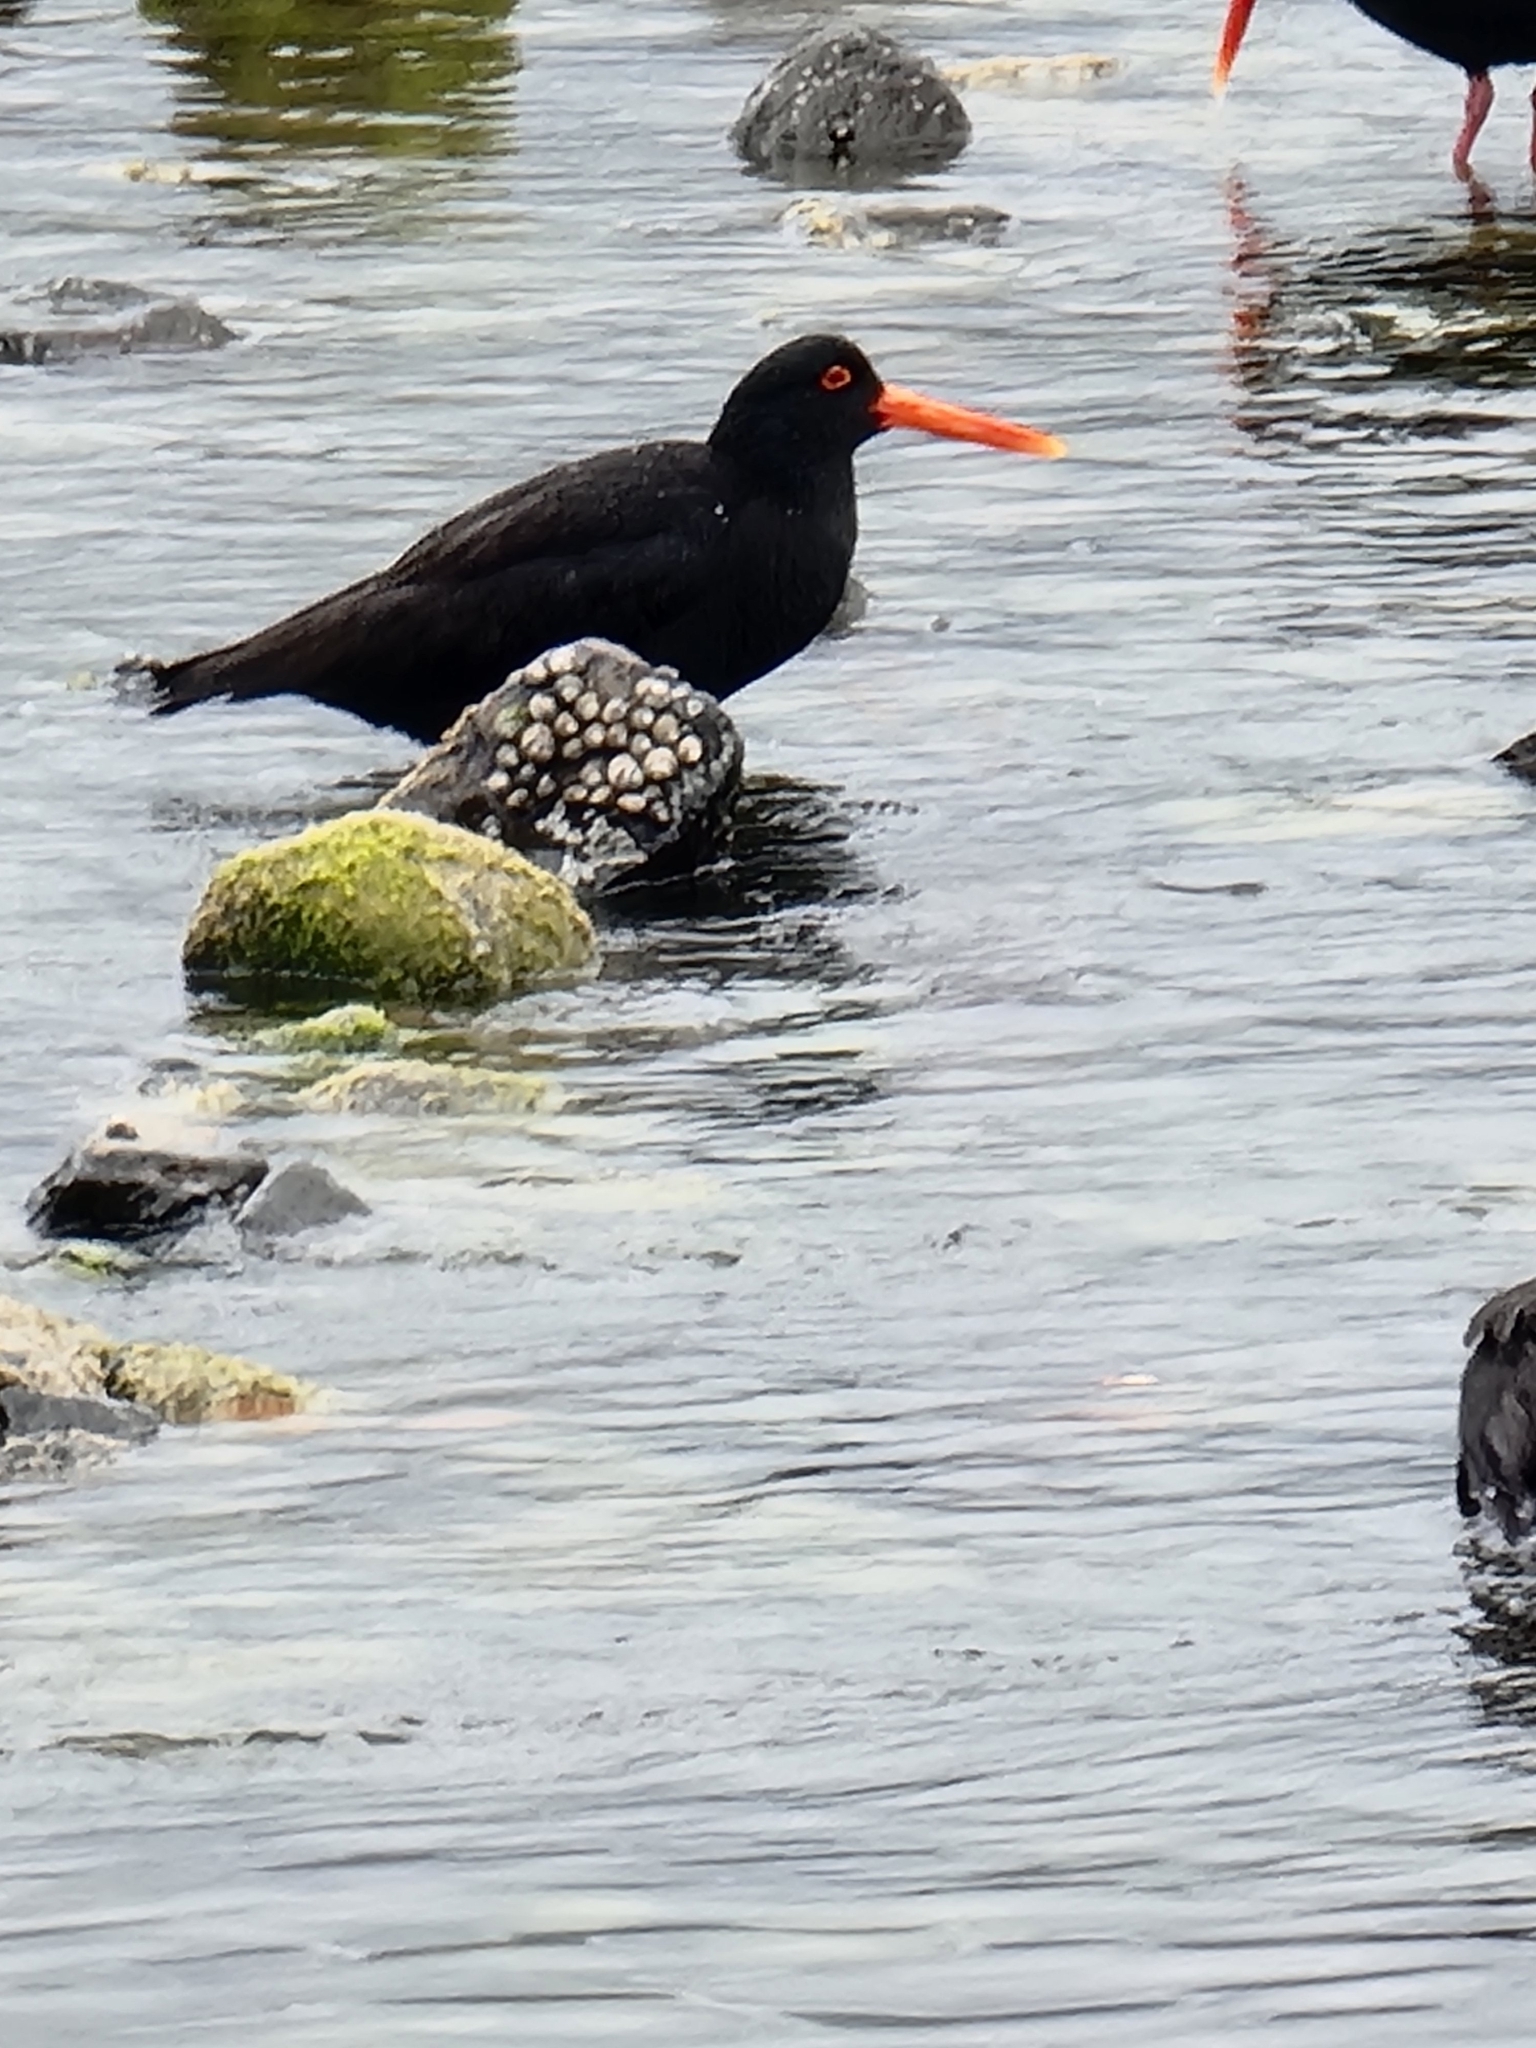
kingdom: Animalia
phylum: Chordata
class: Aves
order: Charadriiformes
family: Haematopodidae
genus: Haematopus
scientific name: Haematopus unicolor
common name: Variable oystercatcher
